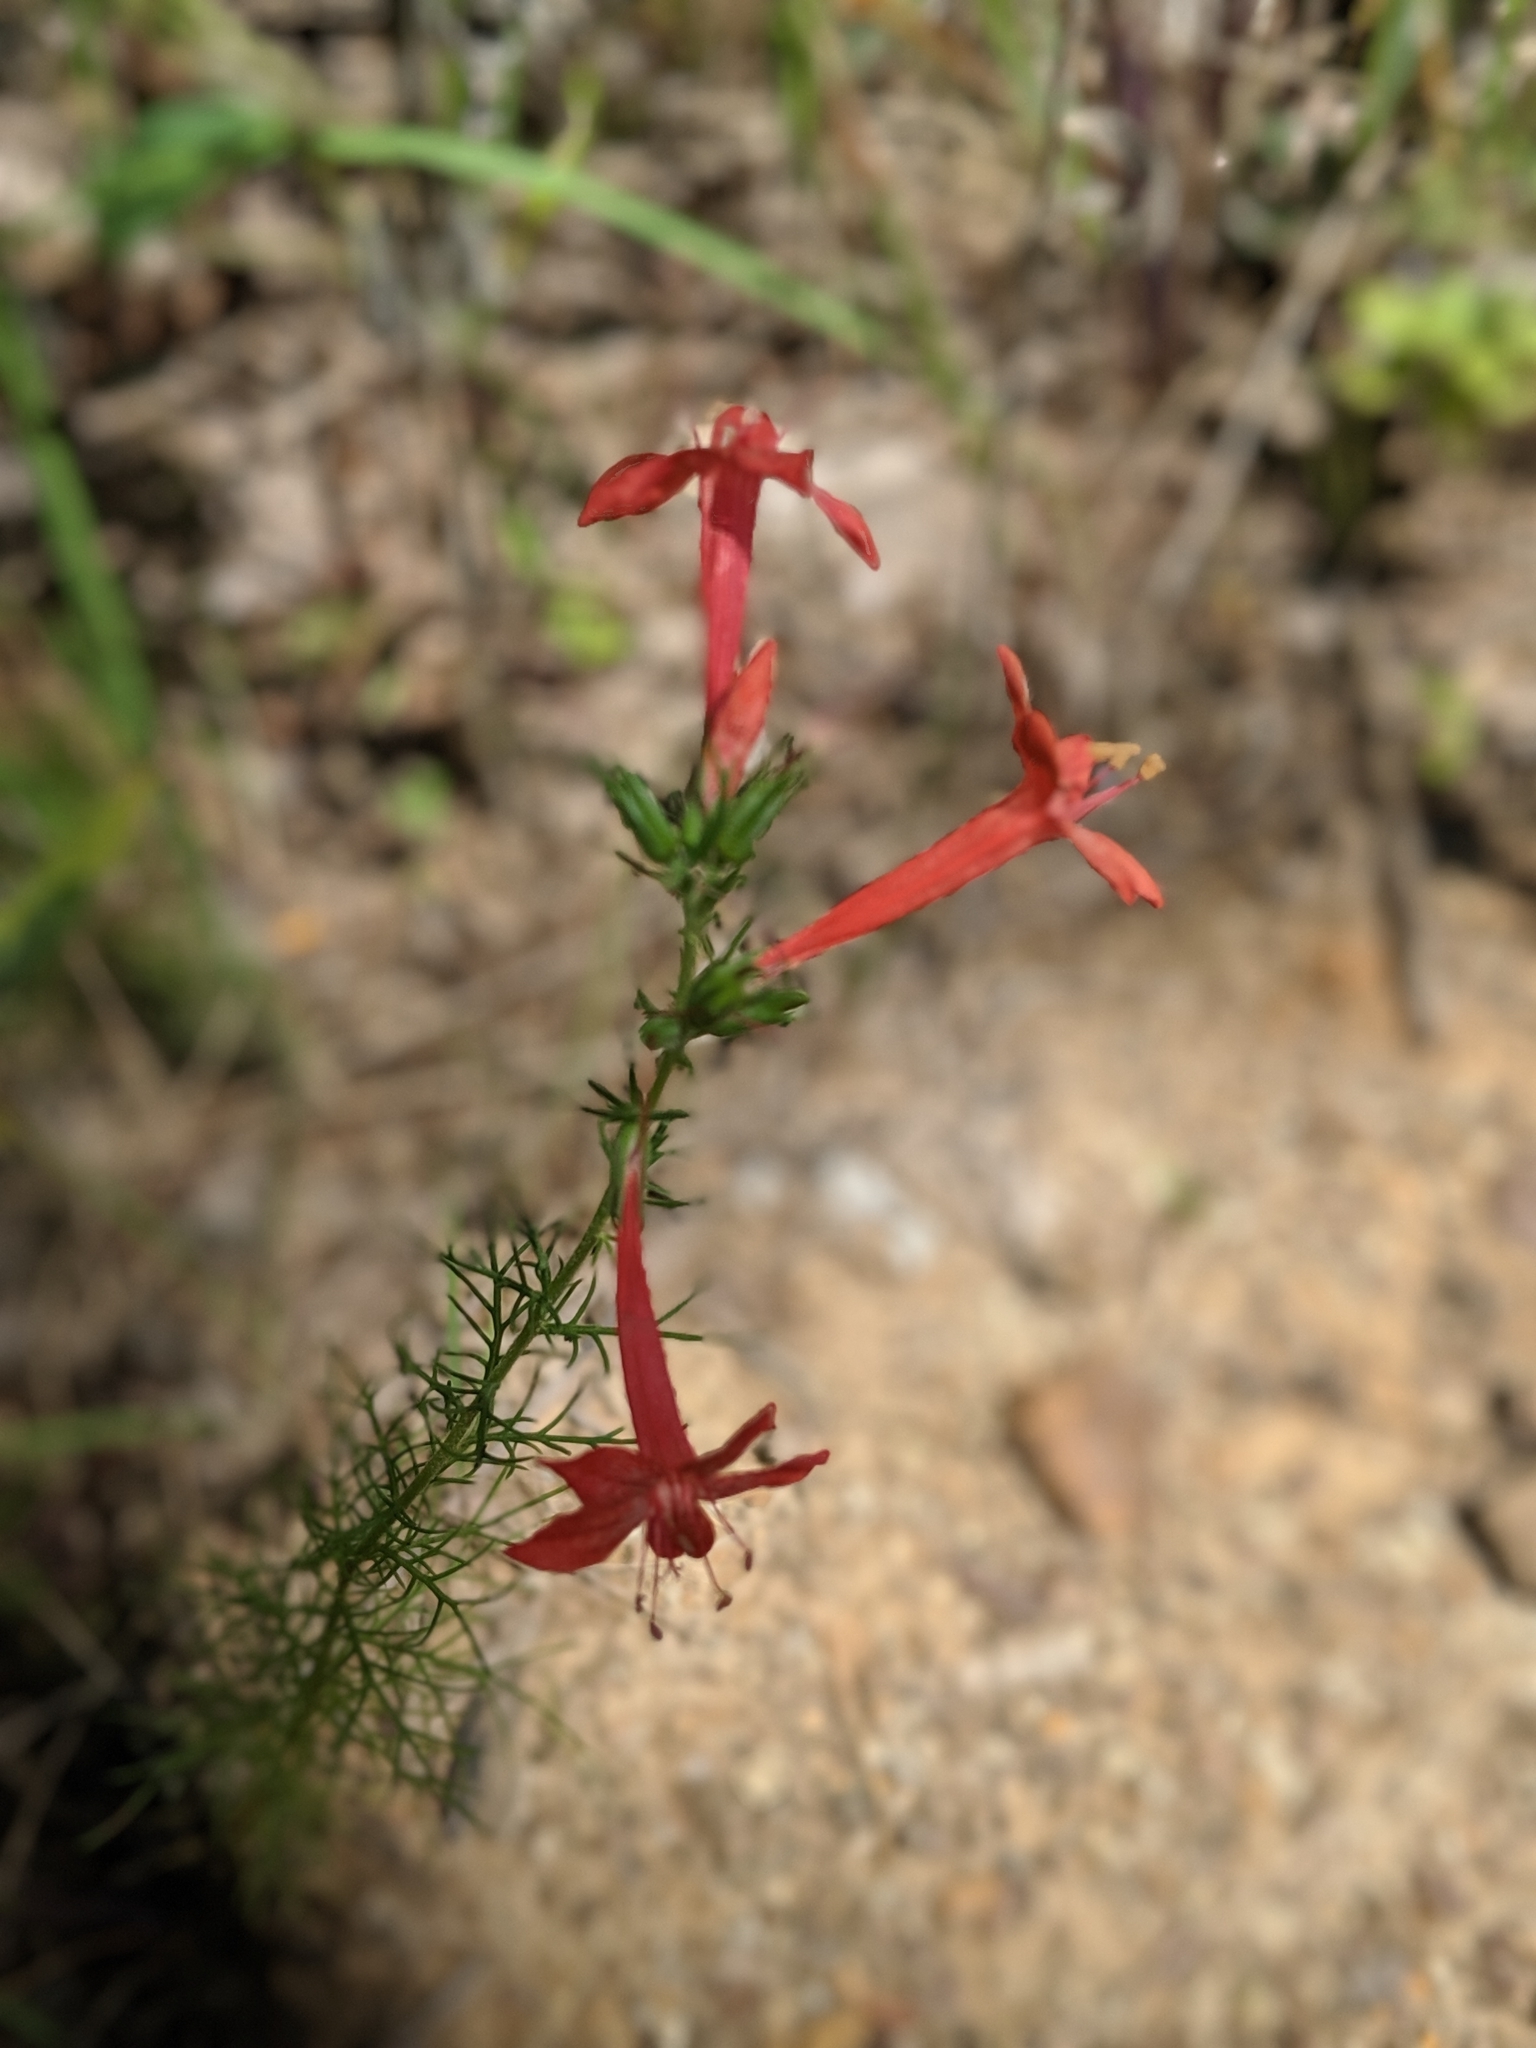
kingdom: Plantae
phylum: Tracheophyta
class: Magnoliopsida
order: Ericales
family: Polemoniaceae
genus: Ipomopsis
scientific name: Ipomopsis rubra
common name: Skyrocket
